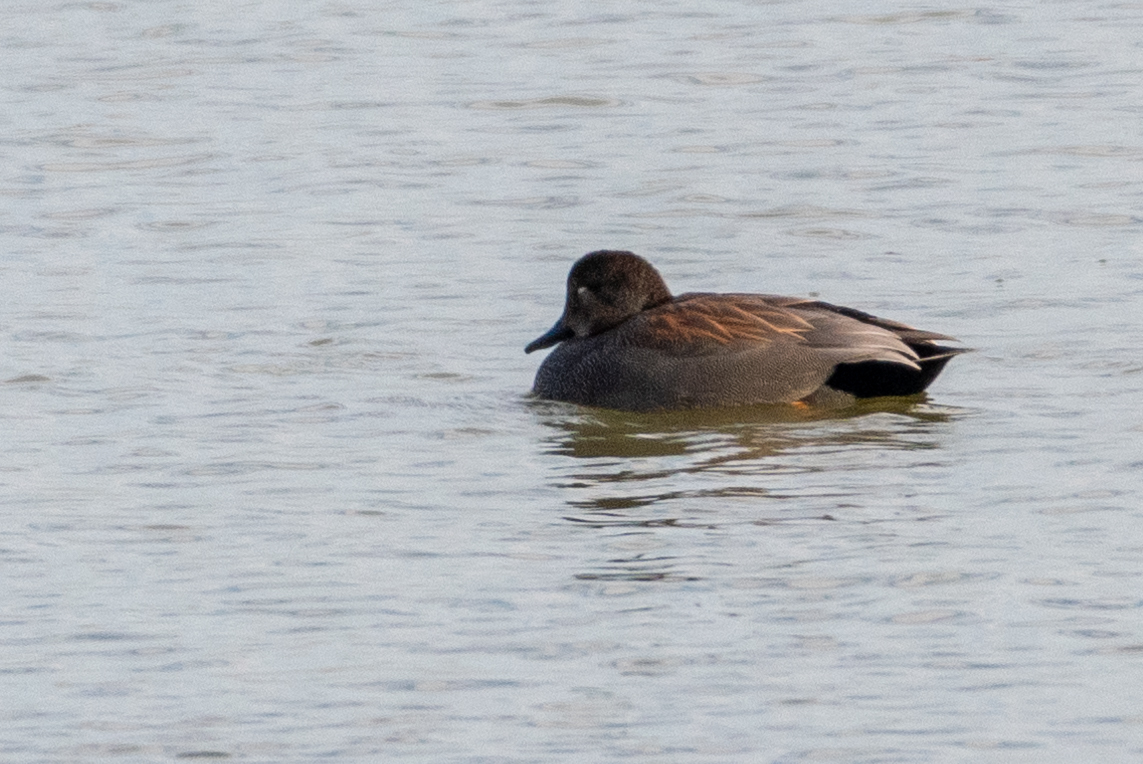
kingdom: Animalia
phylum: Chordata
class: Aves
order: Anseriformes
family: Anatidae
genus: Mareca
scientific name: Mareca strepera
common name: Gadwall
